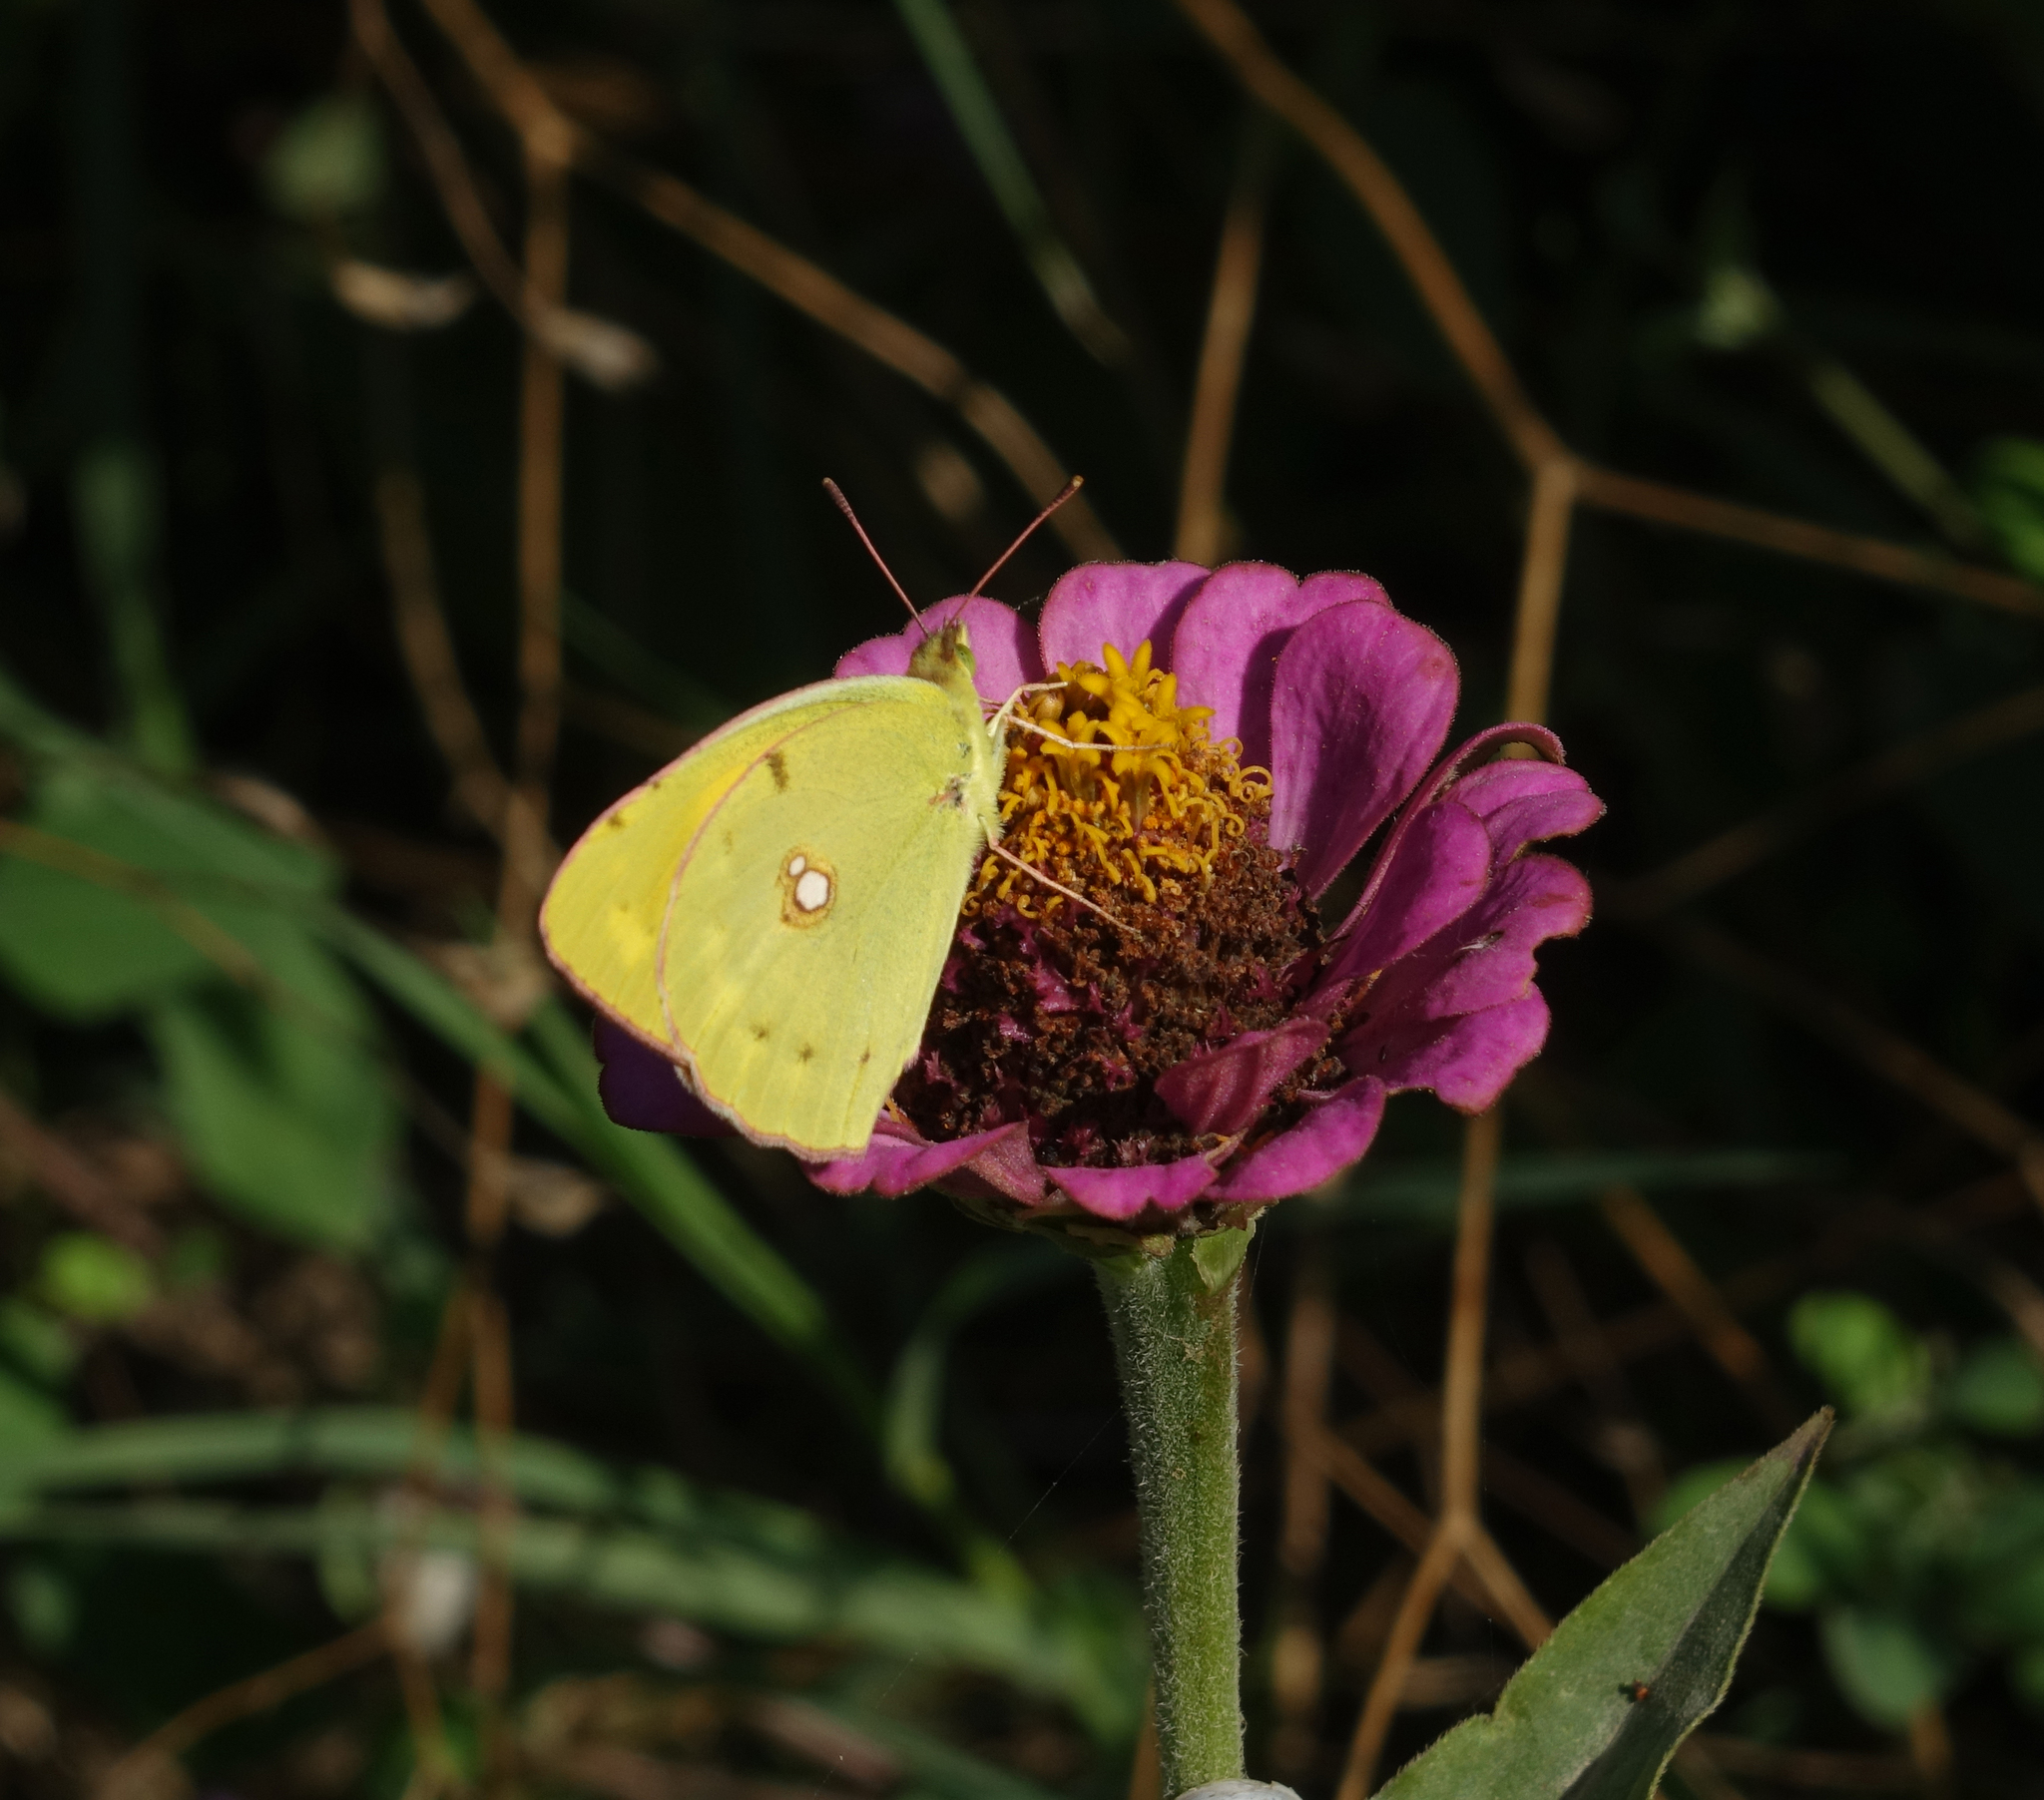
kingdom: Animalia
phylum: Arthropoda
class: Insecta
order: Lepidoptera
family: Pieridae
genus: Colias
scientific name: Colias croceus
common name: Clouded yellow
